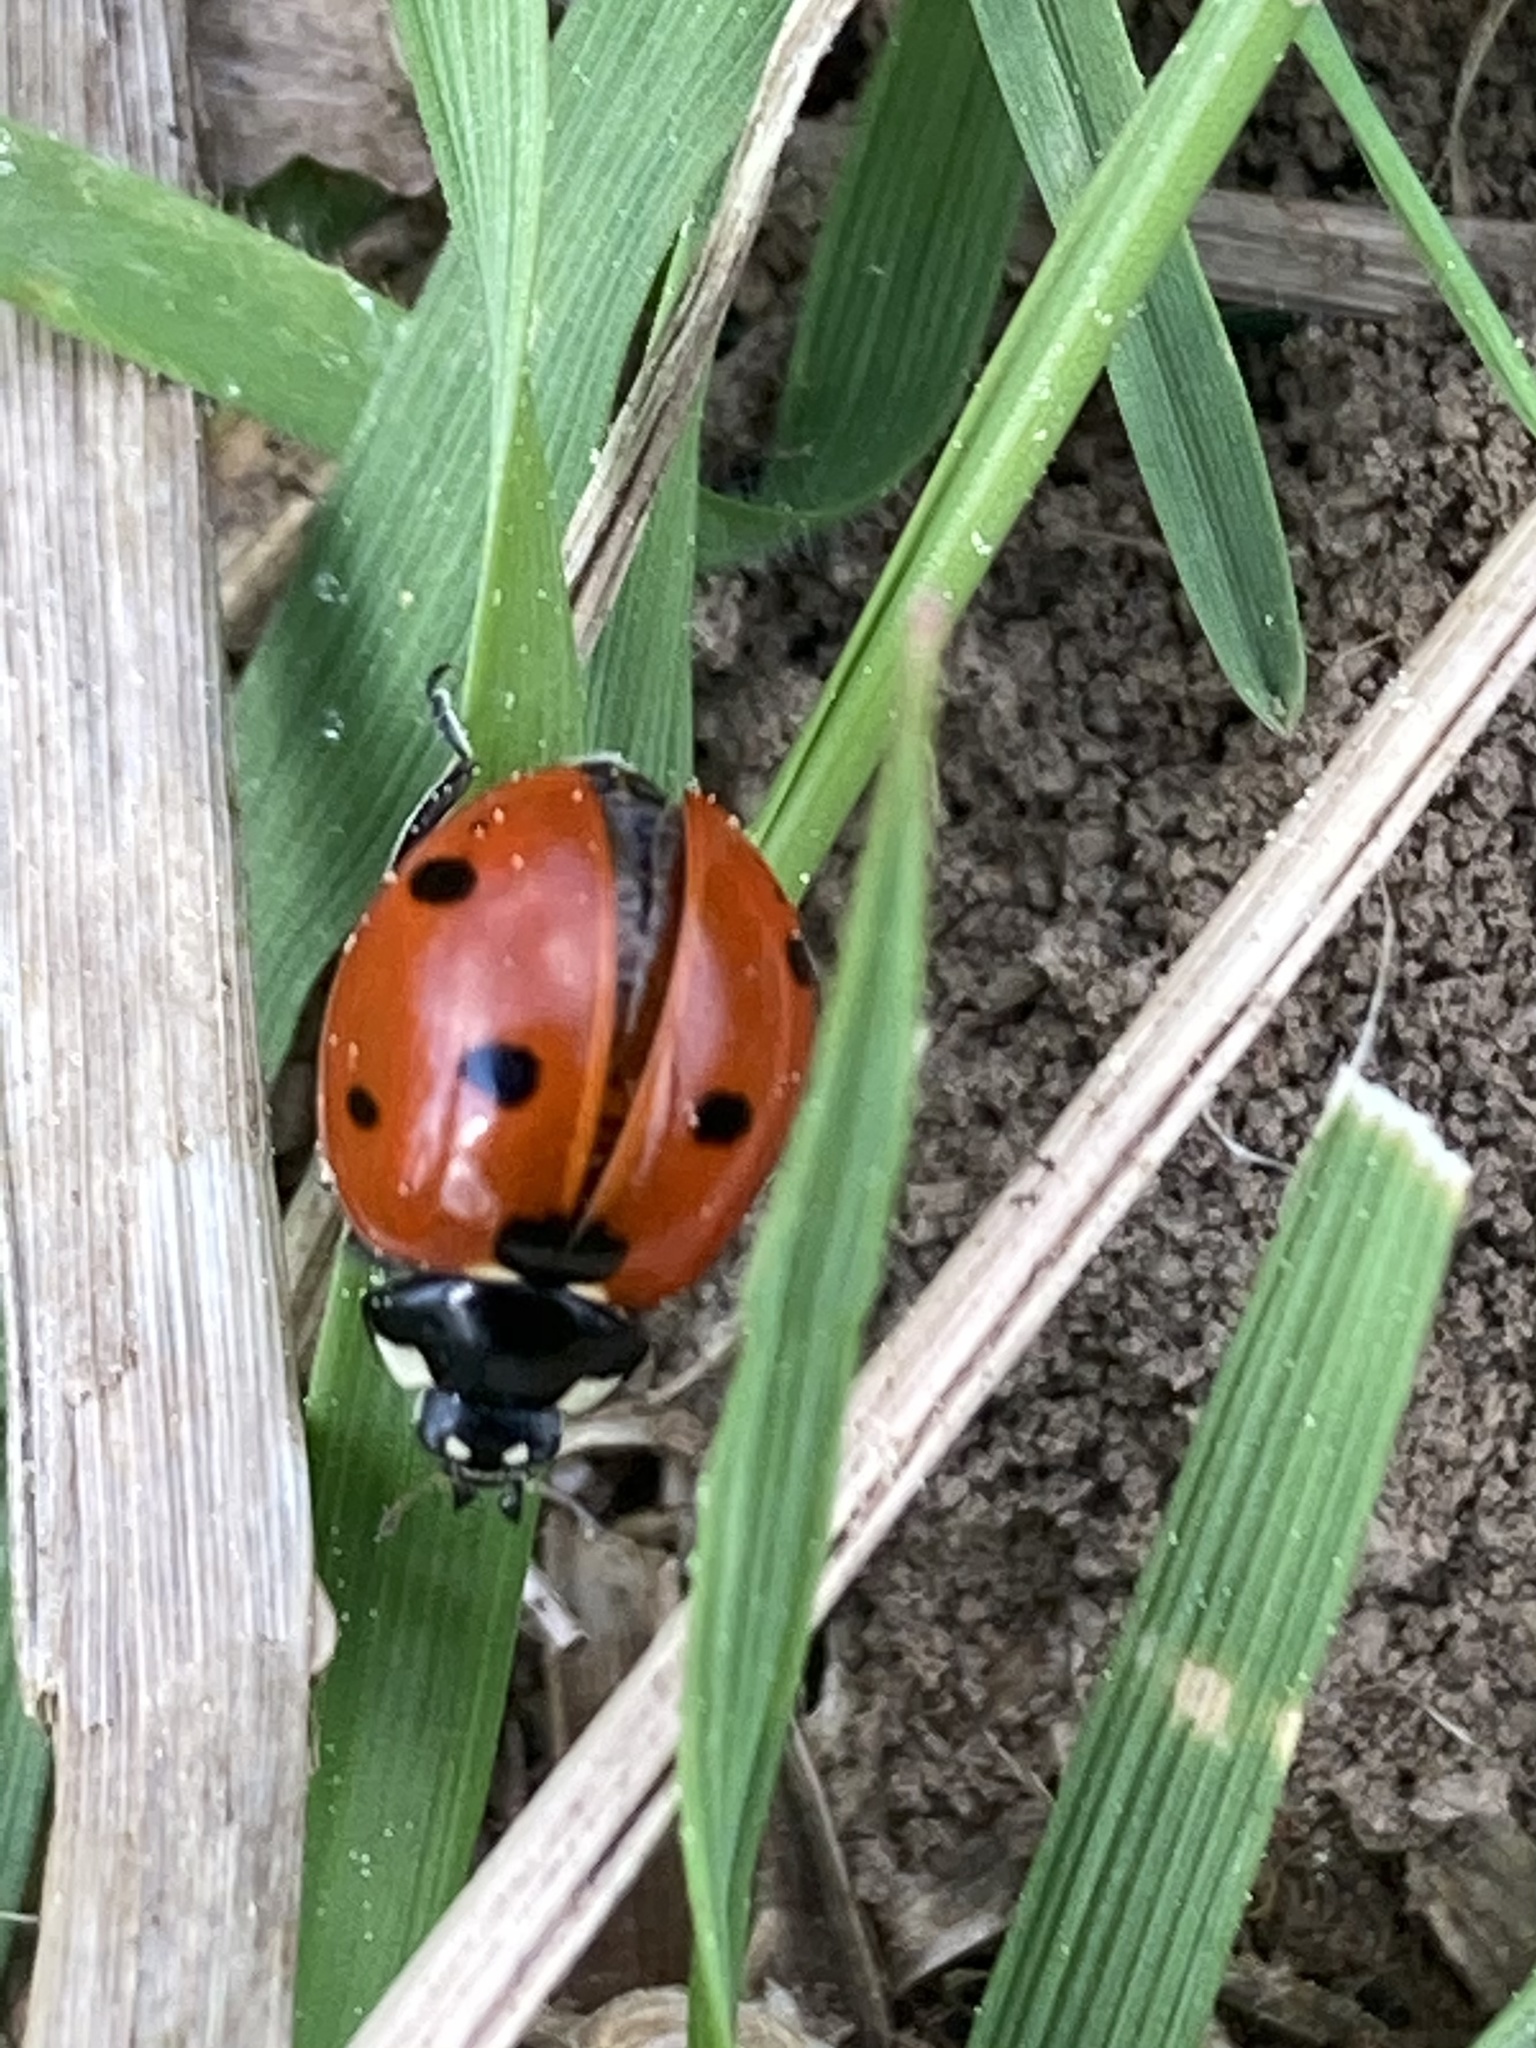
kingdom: Animalia
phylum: Arthropoda
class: Insecta
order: Coleoptera
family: Coccinellidae
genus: Coccinella
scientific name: Coccinella septempunctata
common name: Sevenspotted lady beetle
